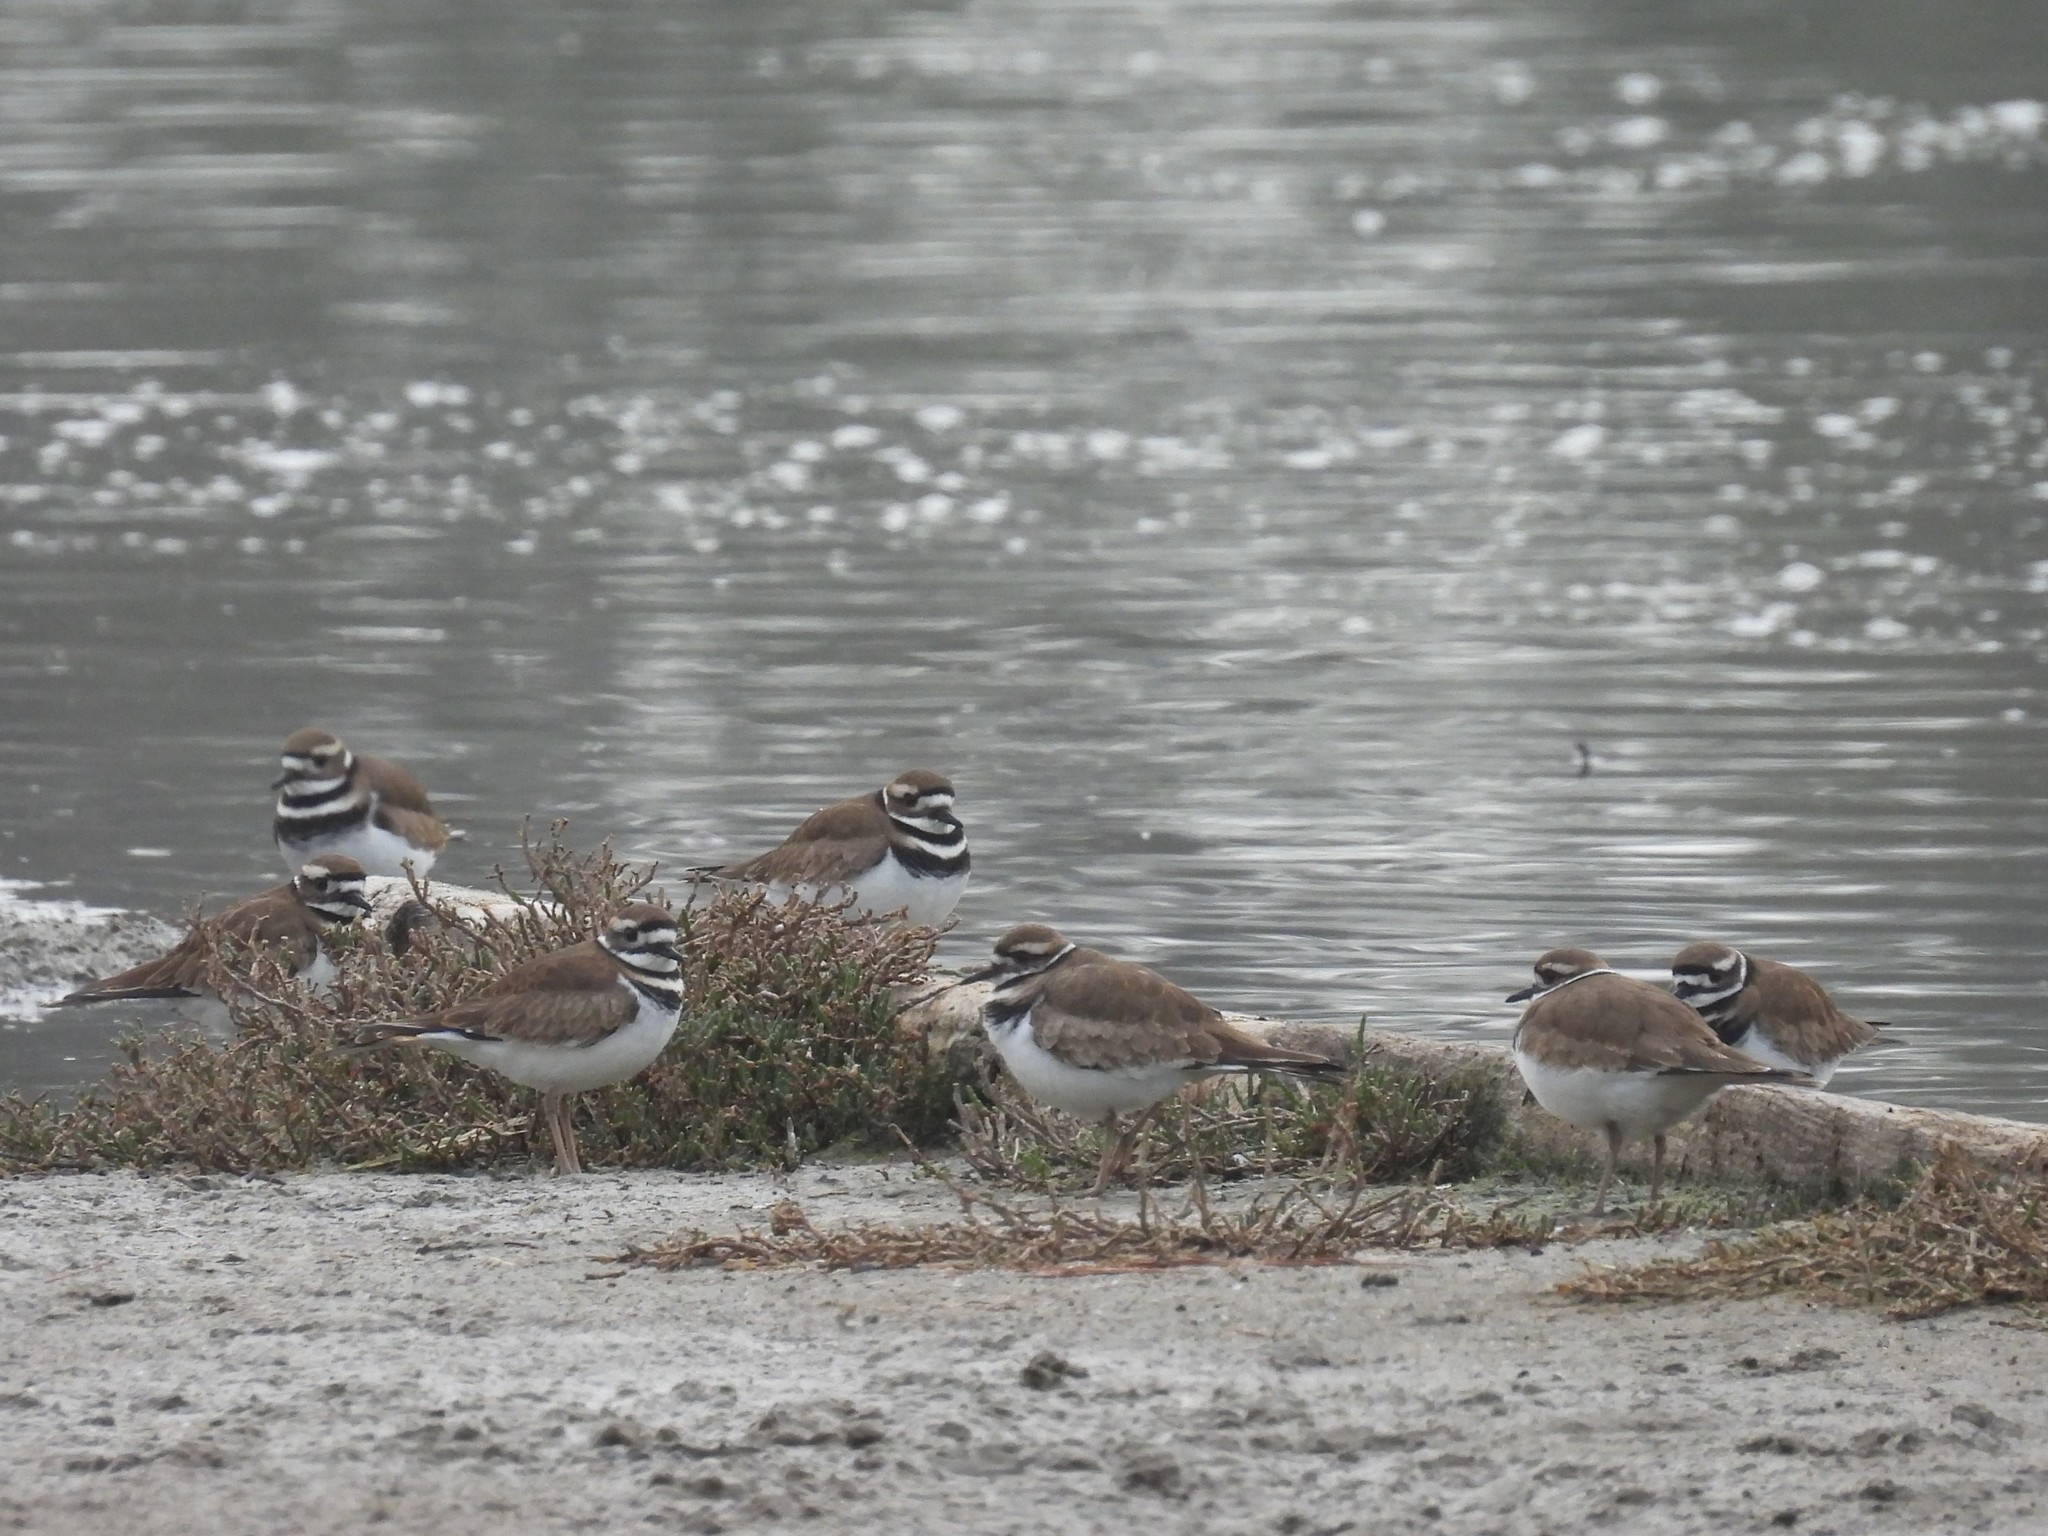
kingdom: Animalia
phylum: Chordata
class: Aves
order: Charadriiformes
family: Charadriidae
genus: Charadrius
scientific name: Charadrius vociferus
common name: Killdeer
